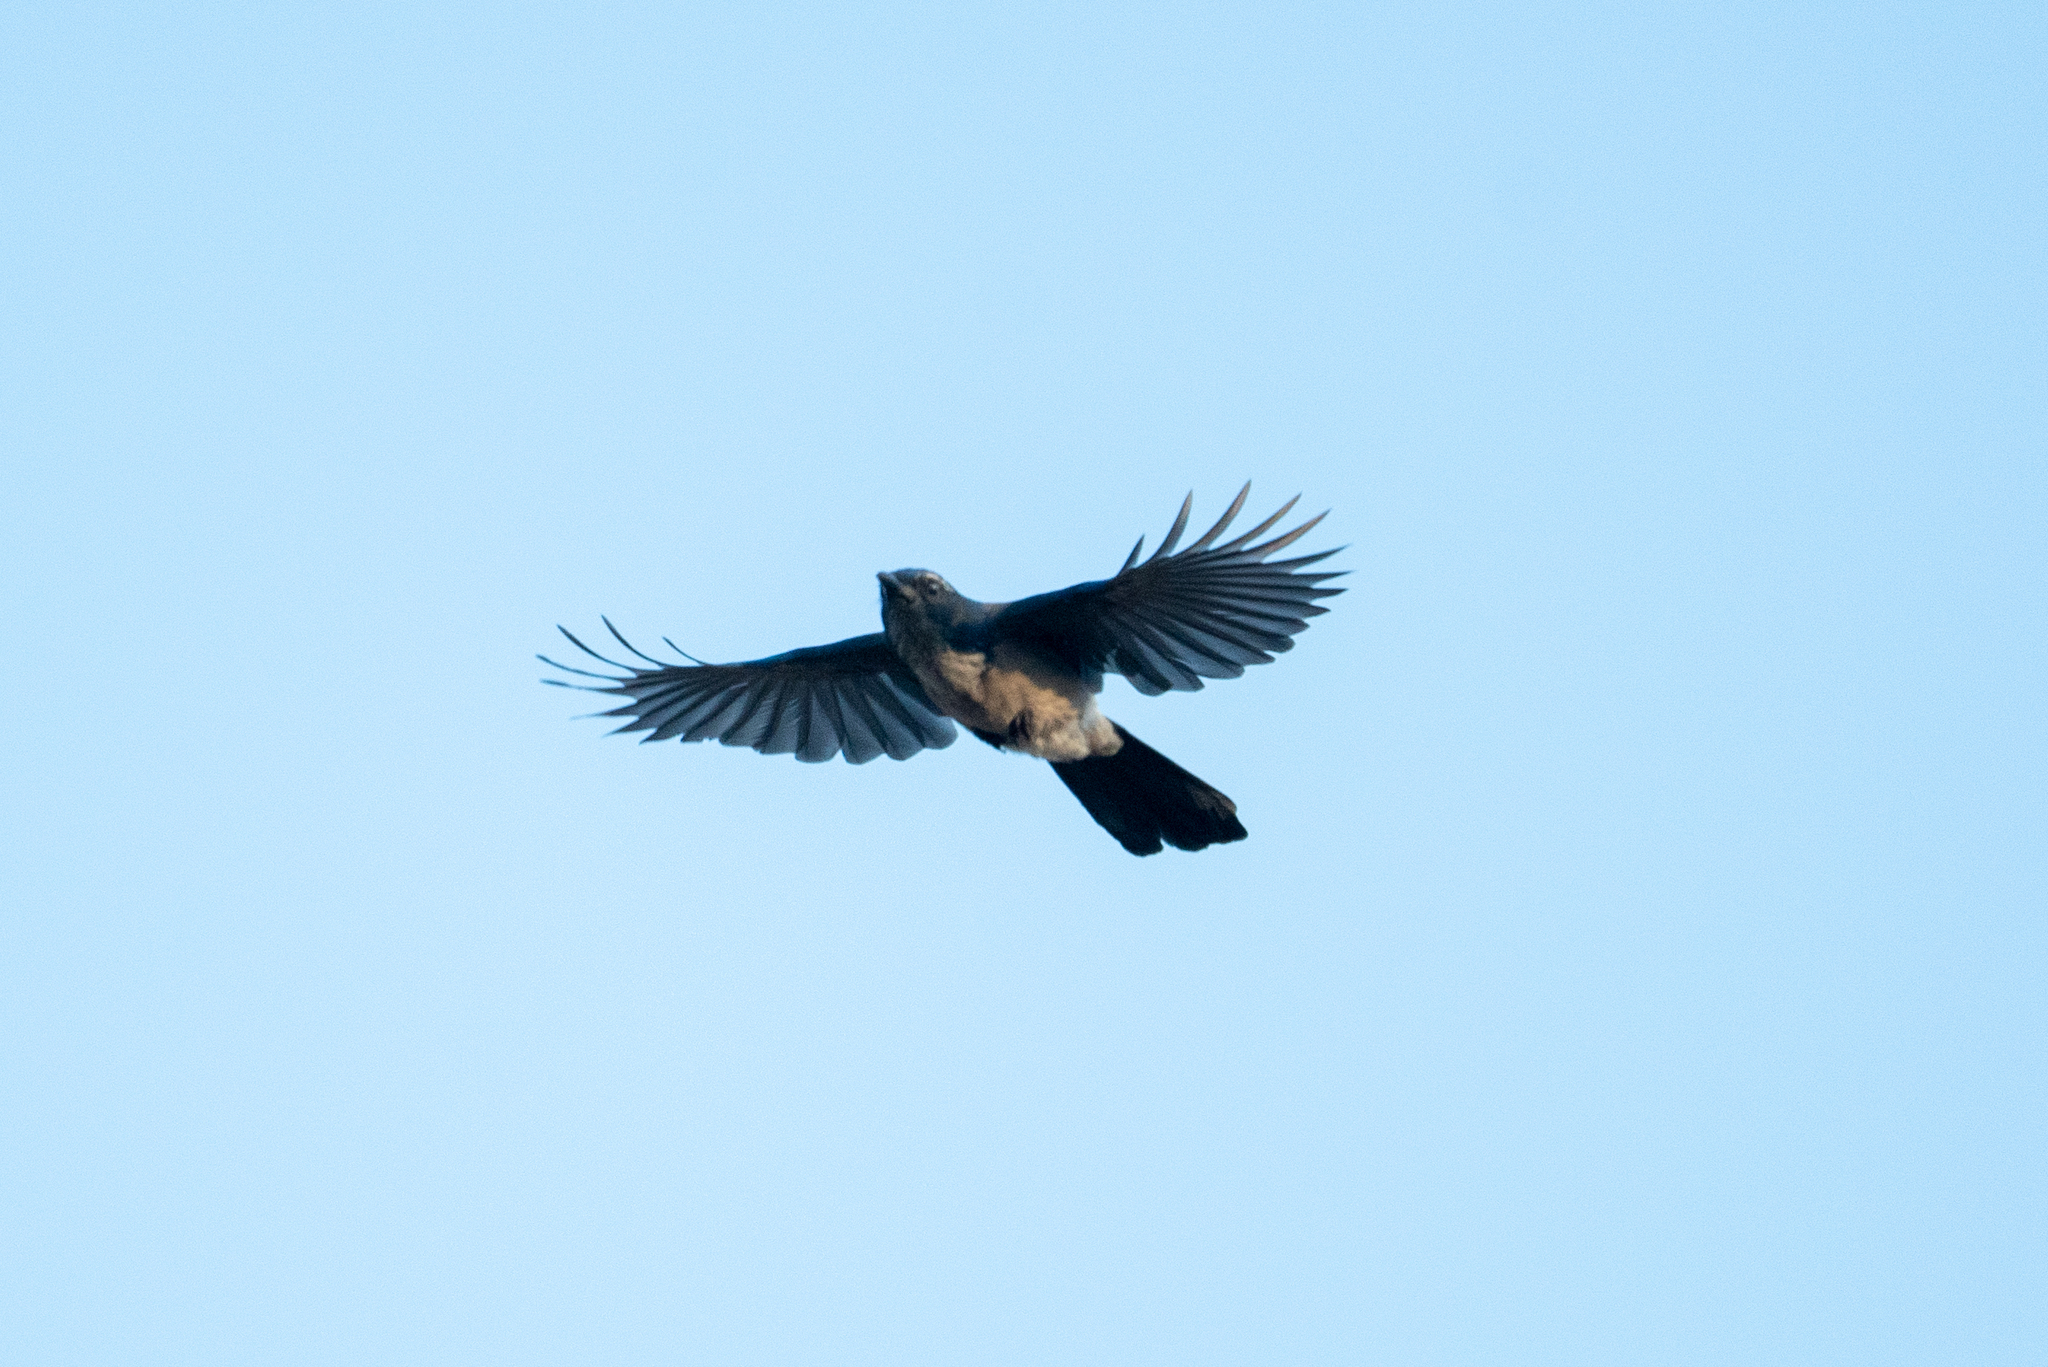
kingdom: Animalia
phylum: Chordata
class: Aves
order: Passeriformes
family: Corvidae
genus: Aphelocoma
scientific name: Aphelocoma californica
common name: California scrub-jay
